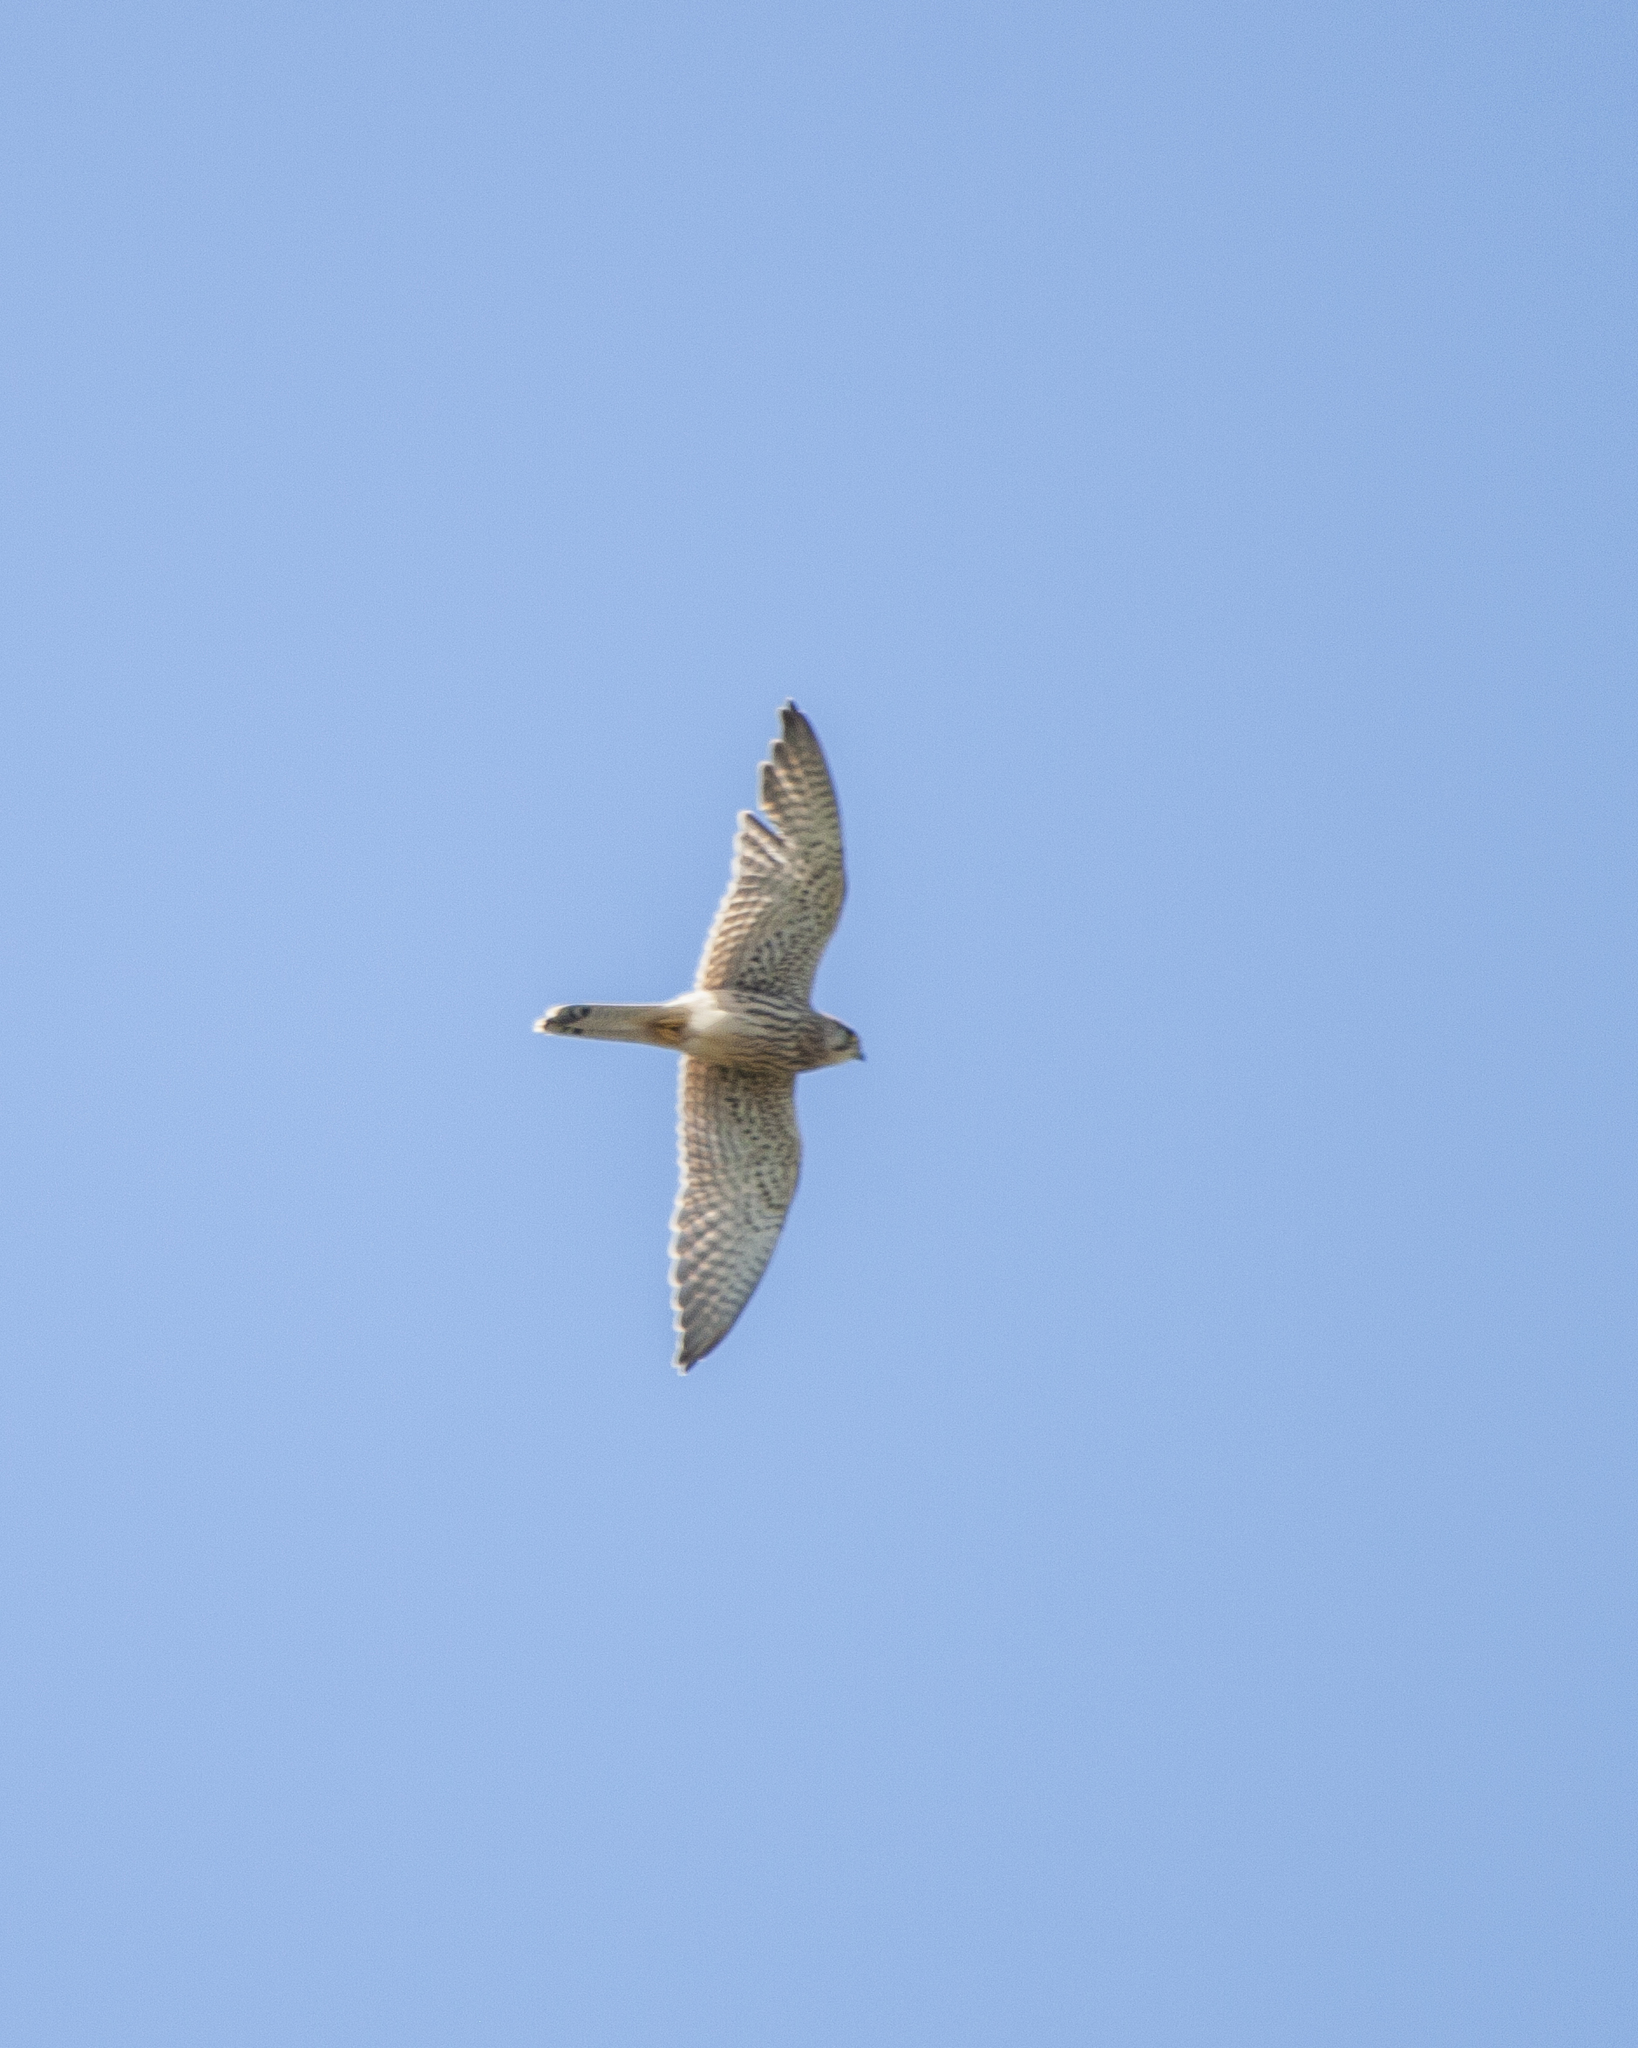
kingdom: Animalia
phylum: Chordata
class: Aves
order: Falconiformes
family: Falconidae
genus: Falco
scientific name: Falco tinnunculus
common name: Common kestrel
